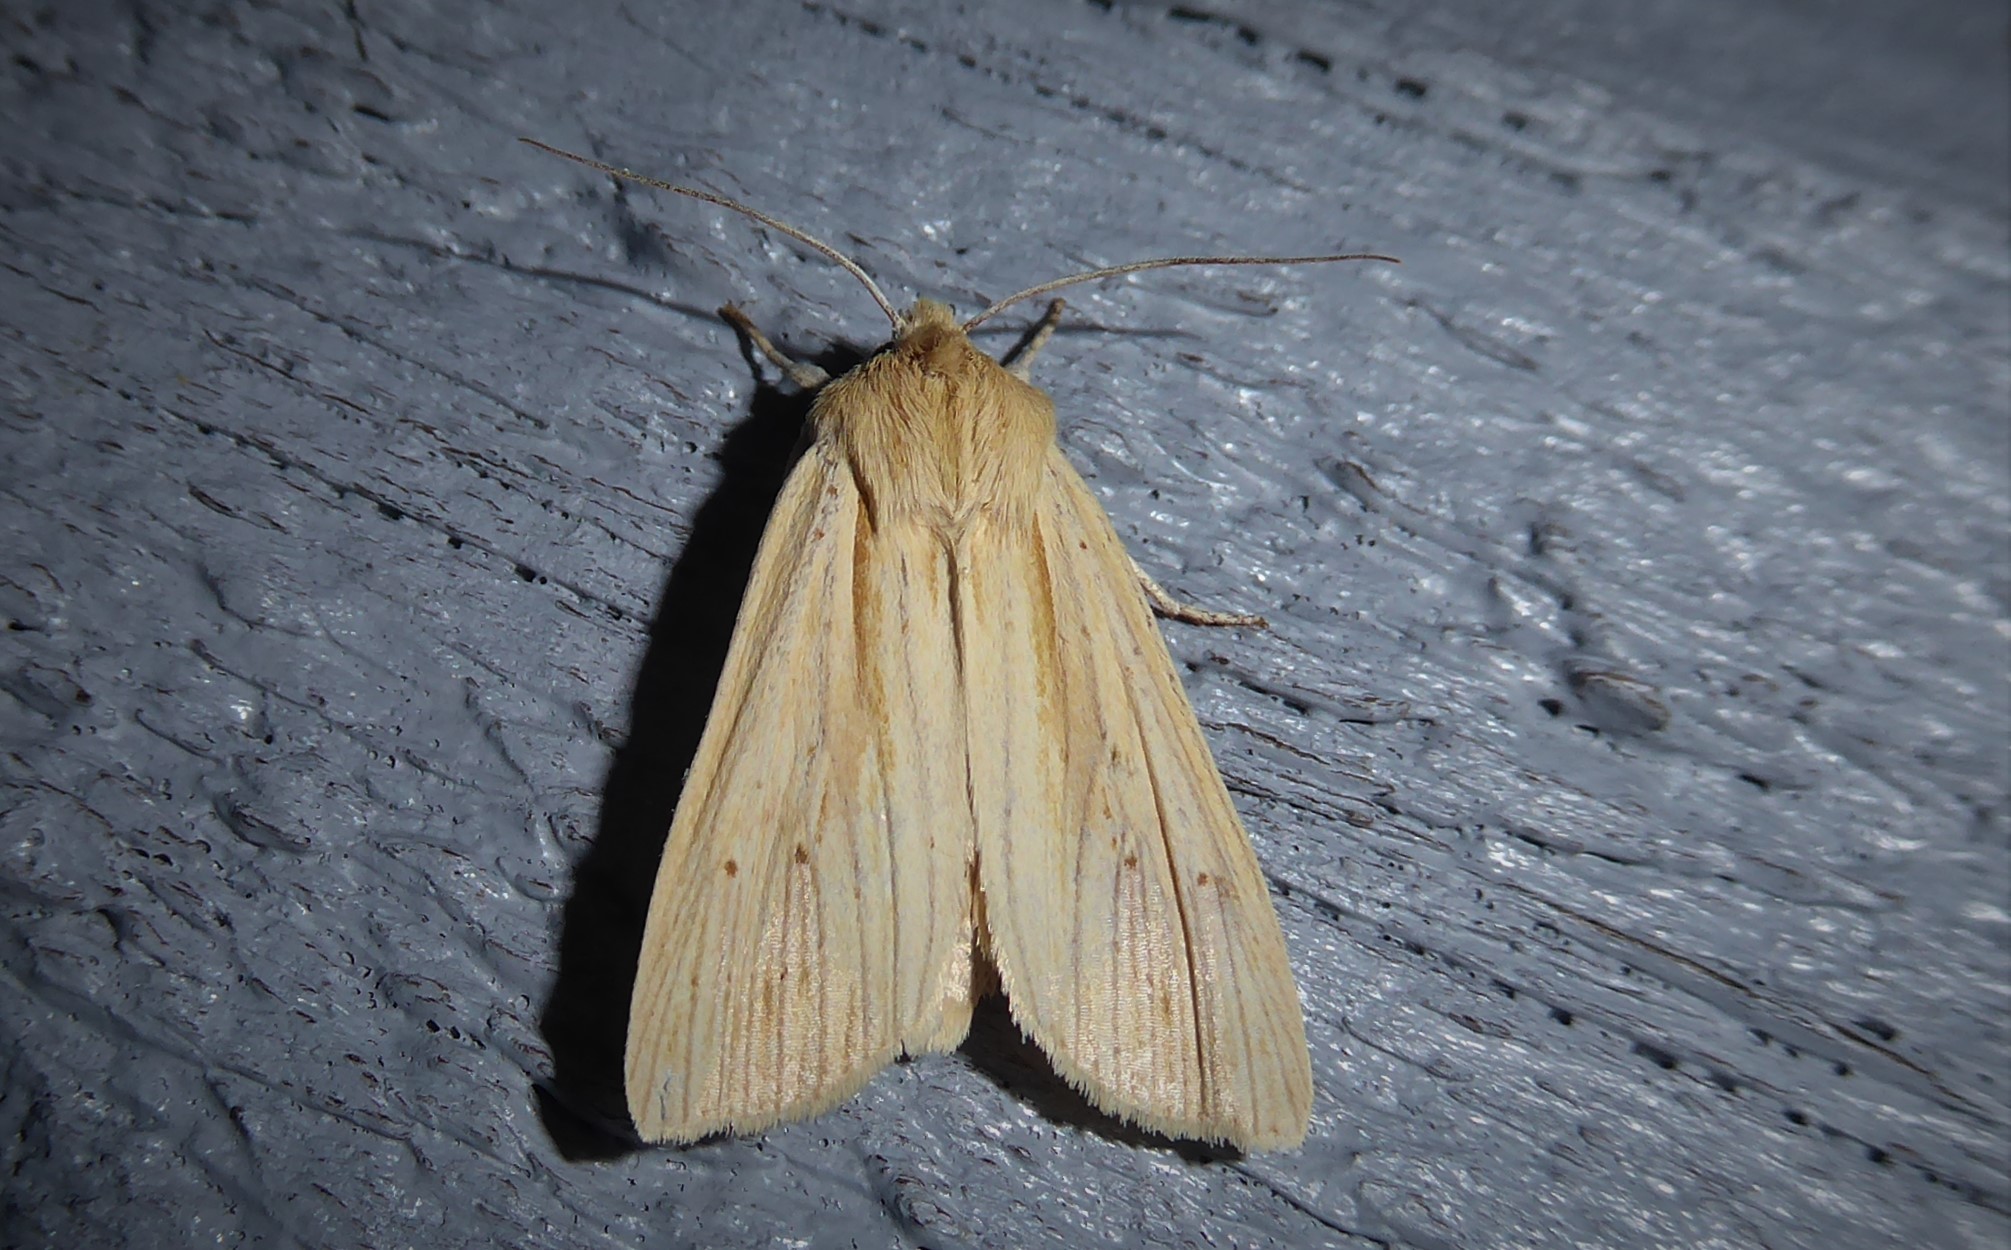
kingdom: Animalia
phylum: Arthropoda
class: Insecta
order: Lepidoptera
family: Noctuidae
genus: Ichneutica
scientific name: Ichneutica semivittata
